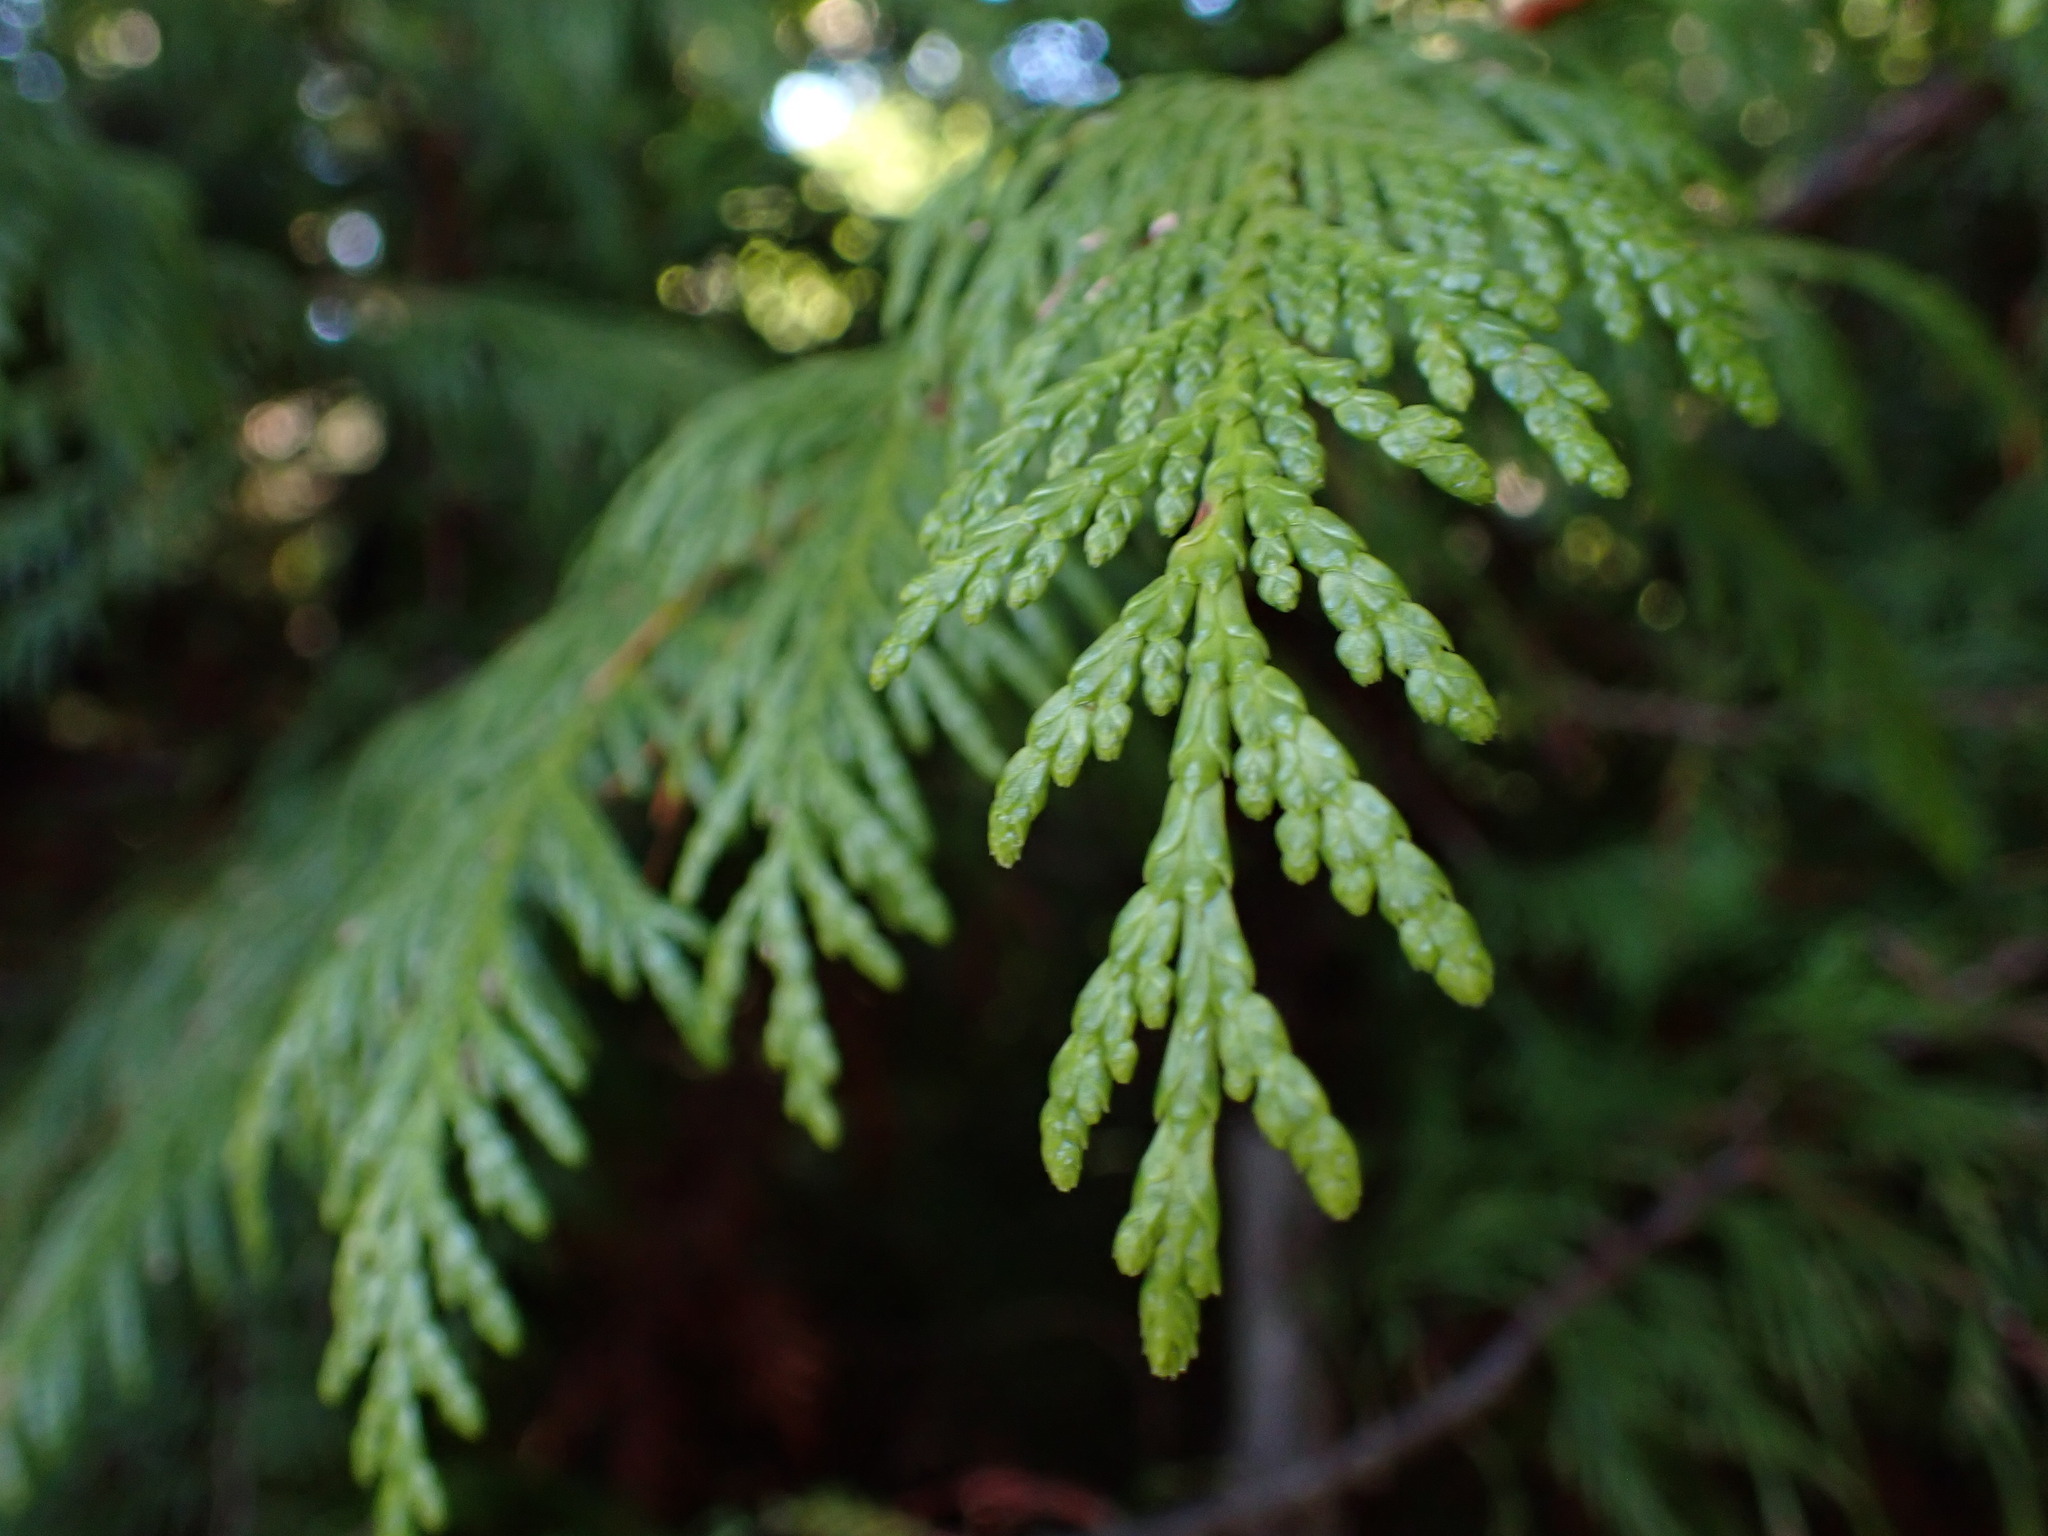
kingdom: Plantae
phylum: Tracheophyta
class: Pinopsida
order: Pinales
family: Cupressaceae
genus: Thuja
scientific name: Thuja plicata
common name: Western red-cedar
